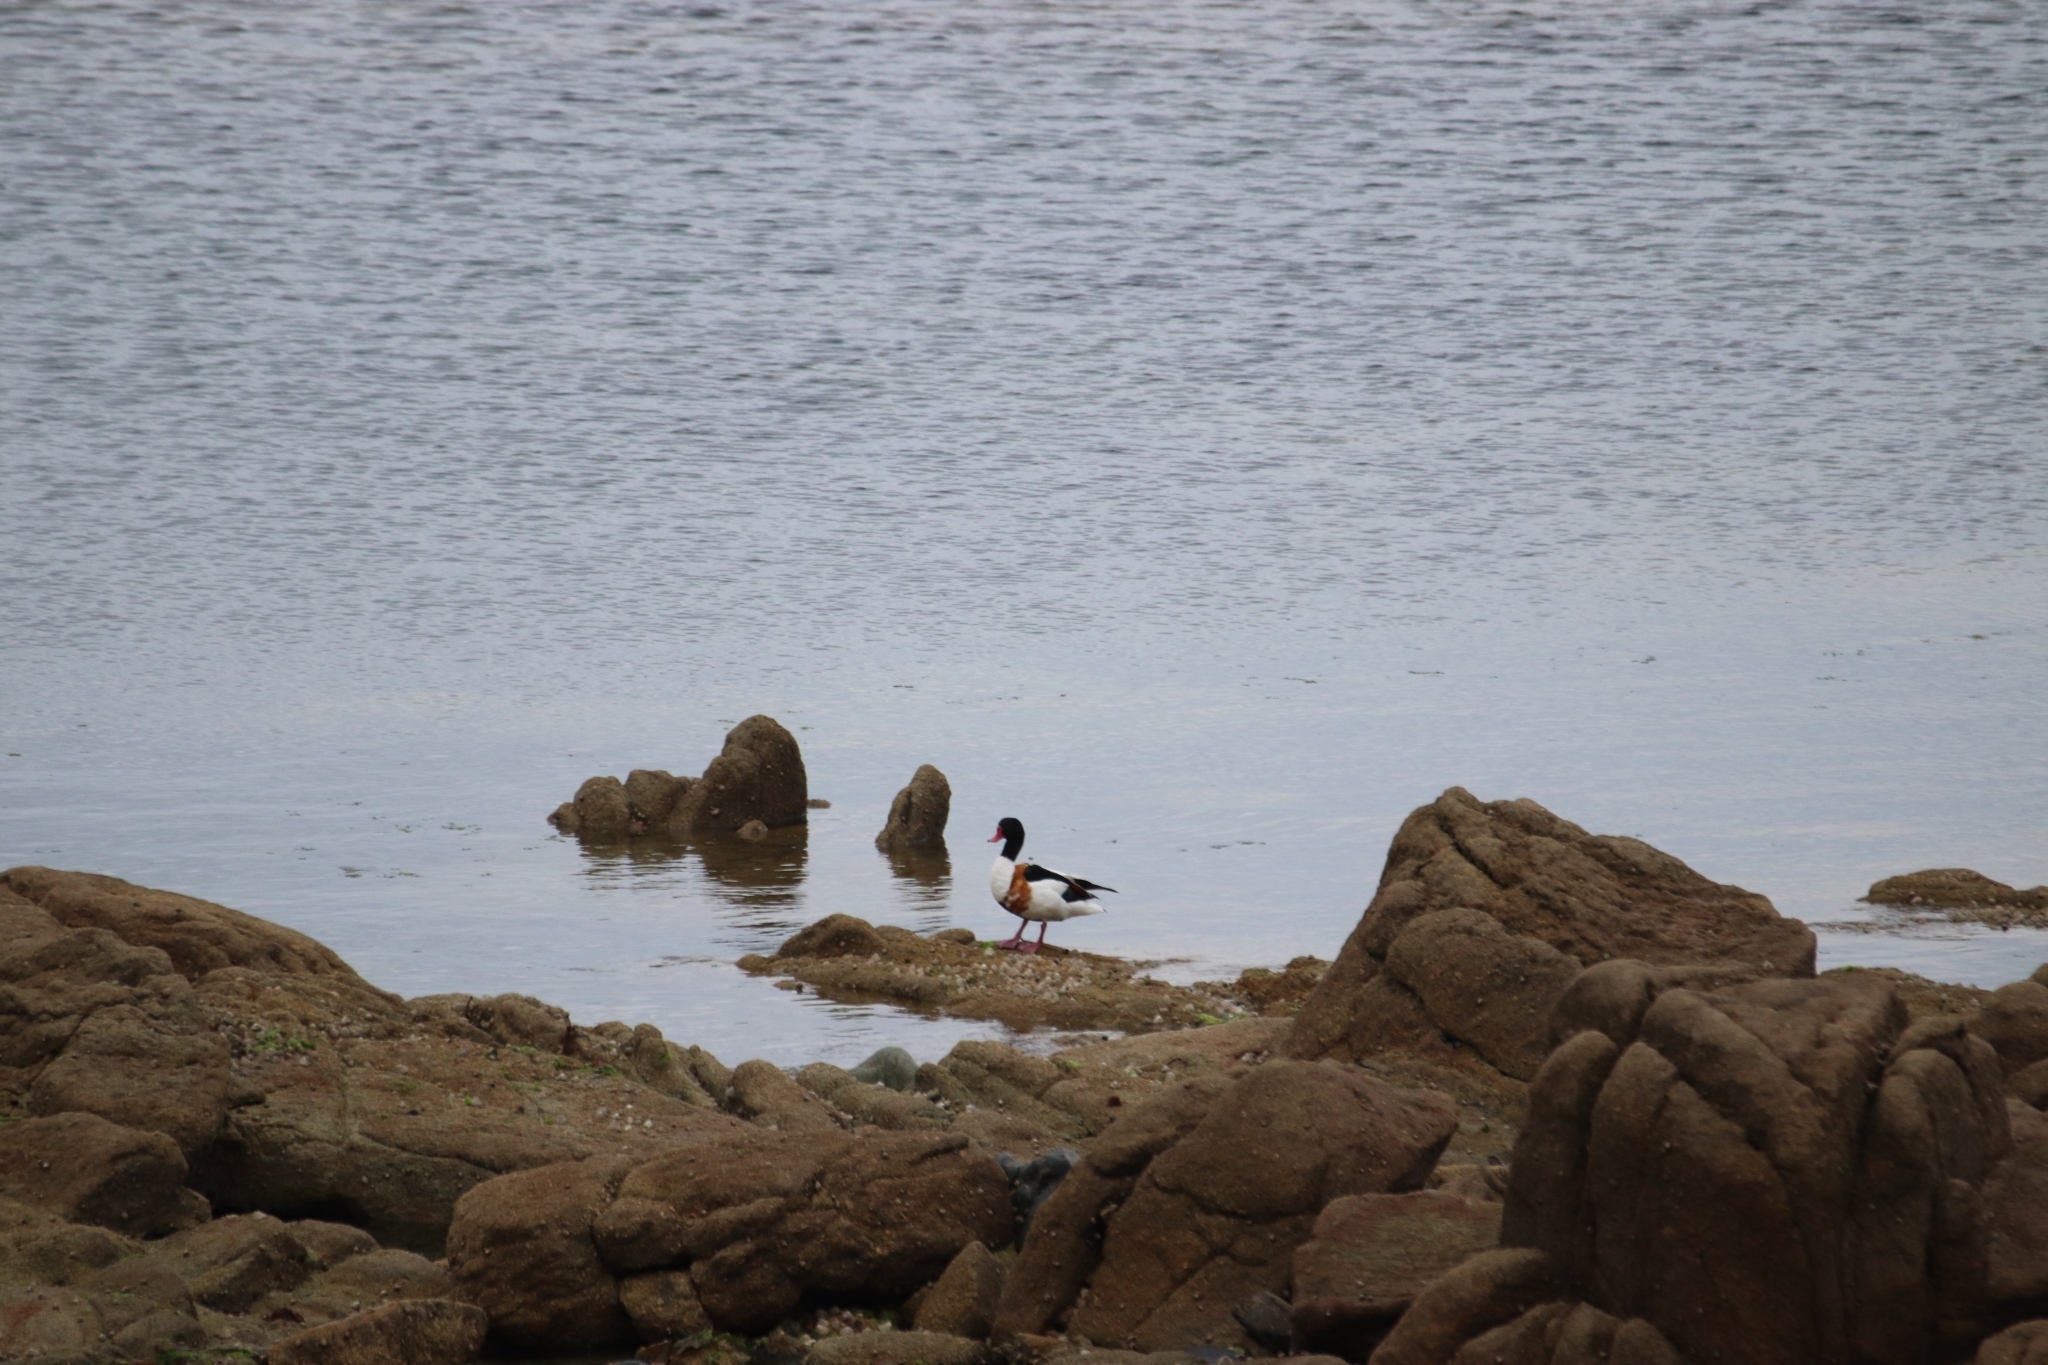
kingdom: Animalia
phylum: Chordata
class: Aves
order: Anseriformes
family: Anatidae
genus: Tadorna
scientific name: Tadorna tadorna
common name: Common shelduck
